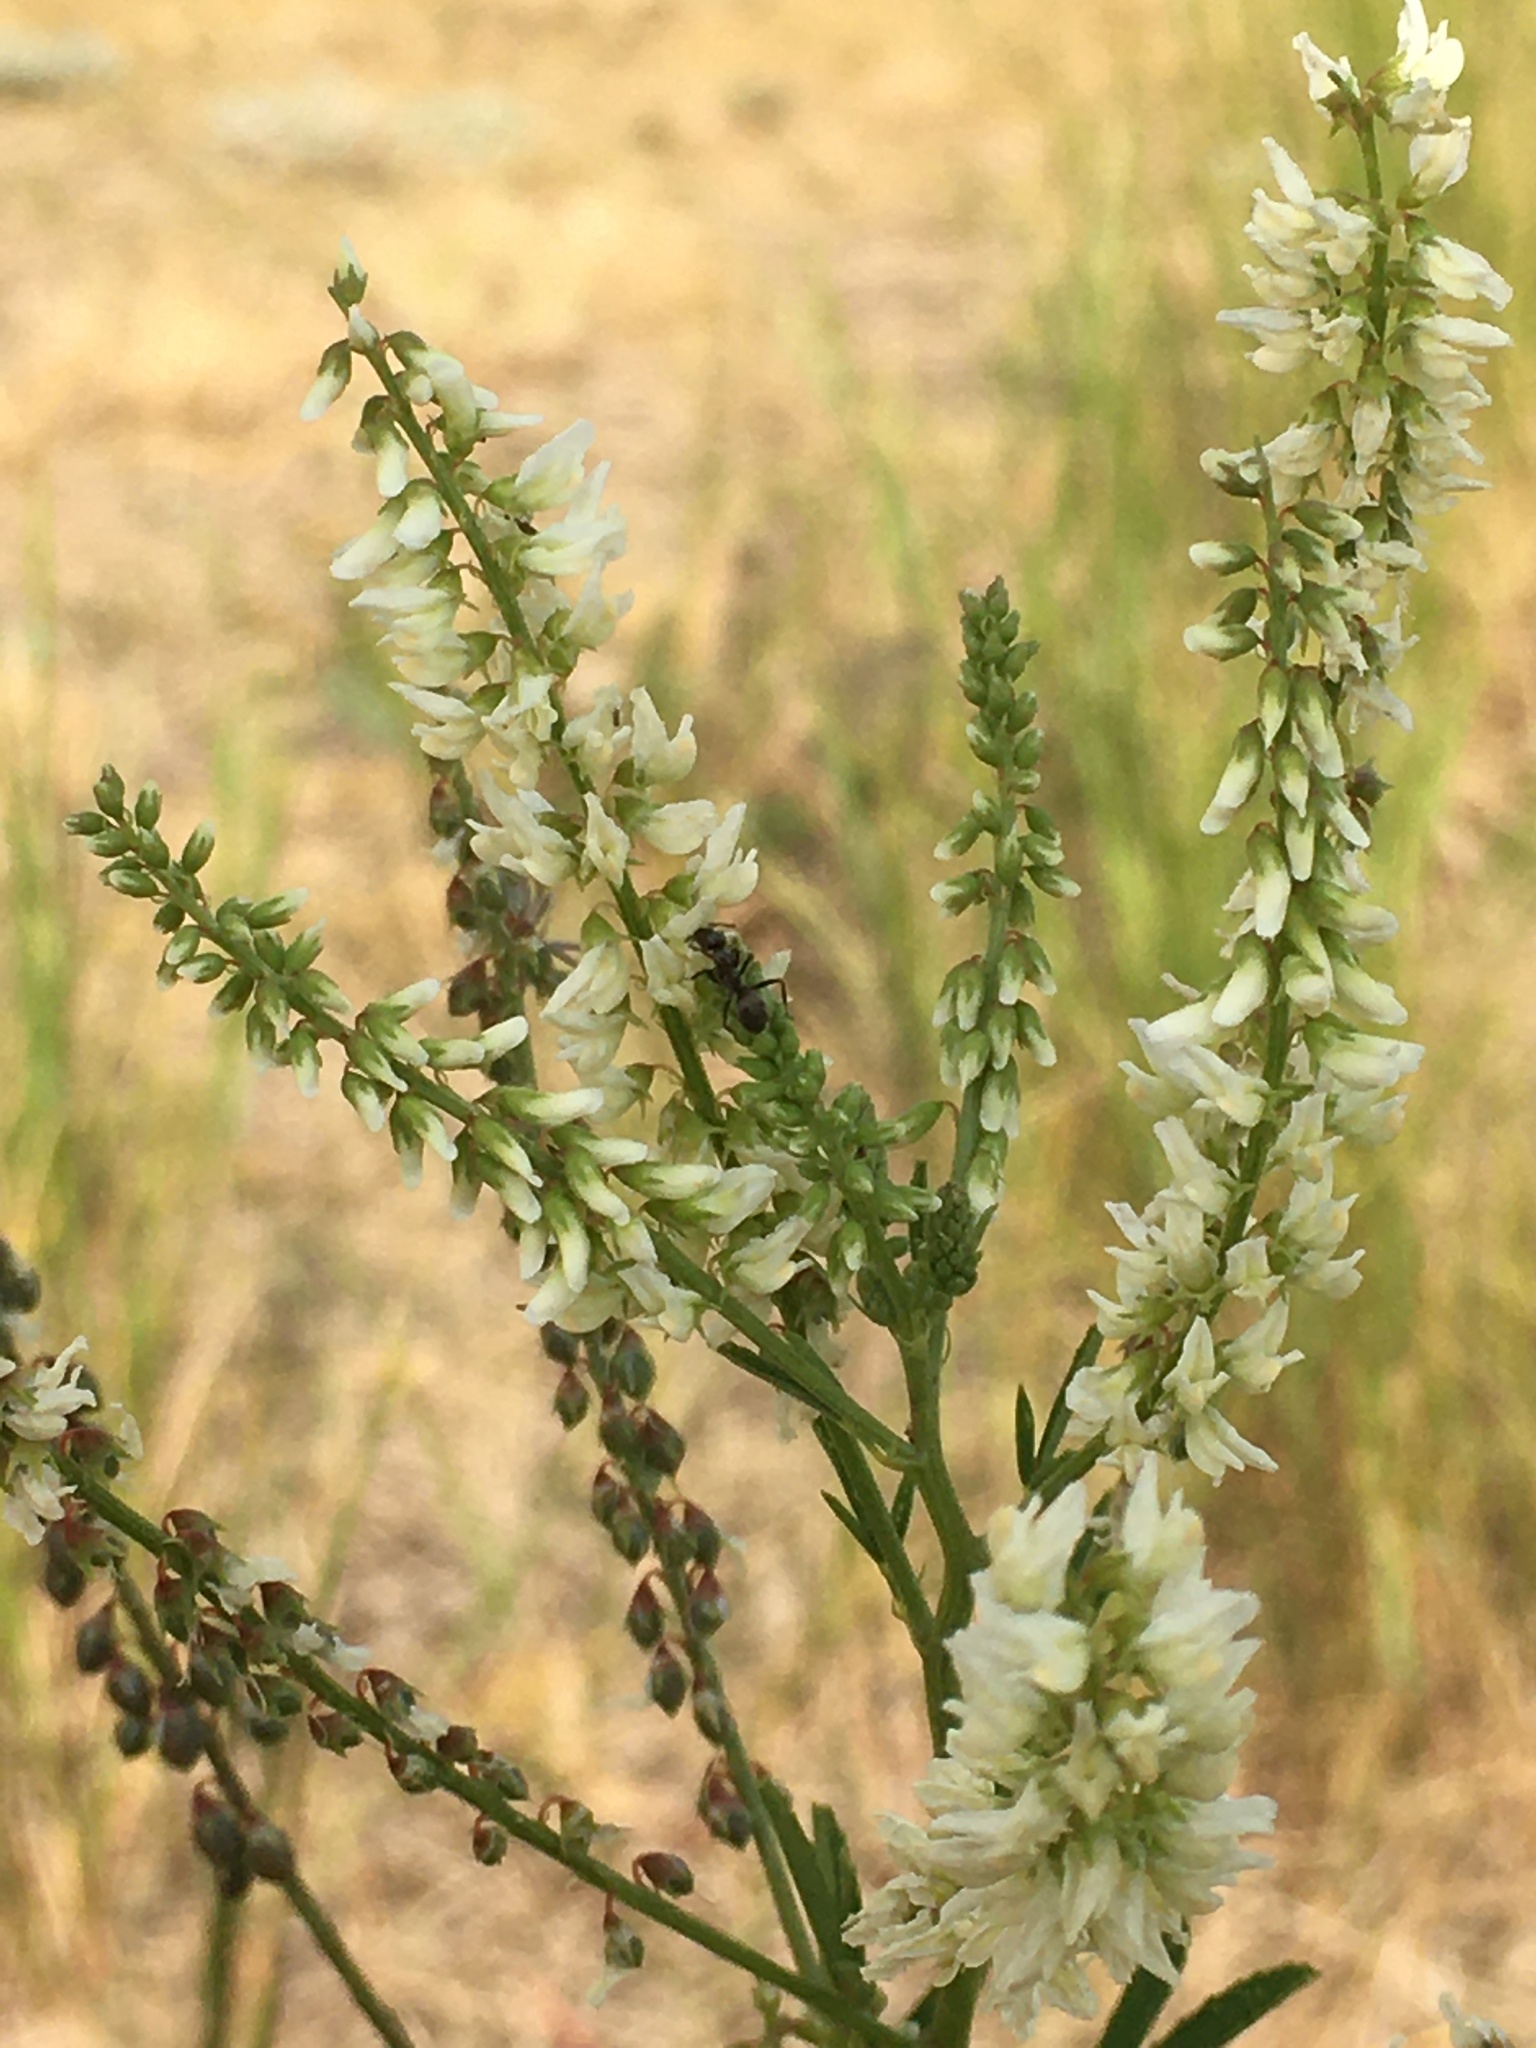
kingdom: Plantae
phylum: Tracheophyta
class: Magnoliopsida
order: Fabales
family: Fabaceae
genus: Melilotus
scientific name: Melilotus albus
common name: White melilot
